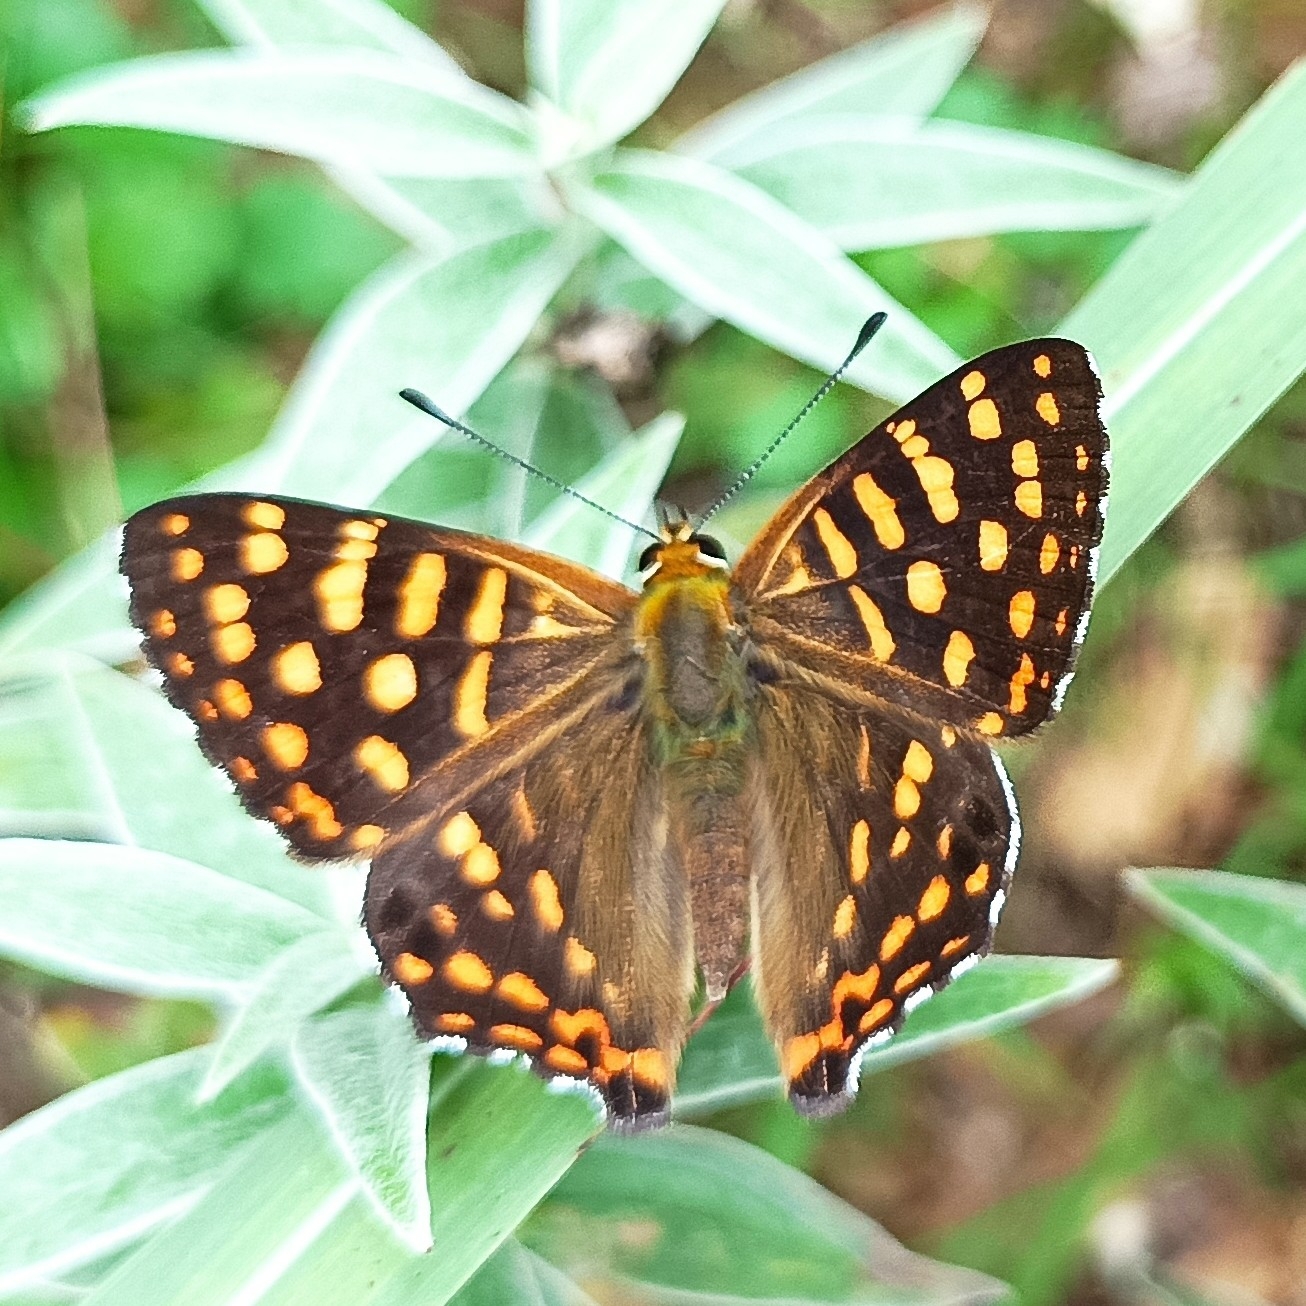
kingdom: Animalia
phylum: Arthropoda
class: Insecta
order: Lepidoptera
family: Lycaenidae
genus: Dodona
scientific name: Dodona durga
